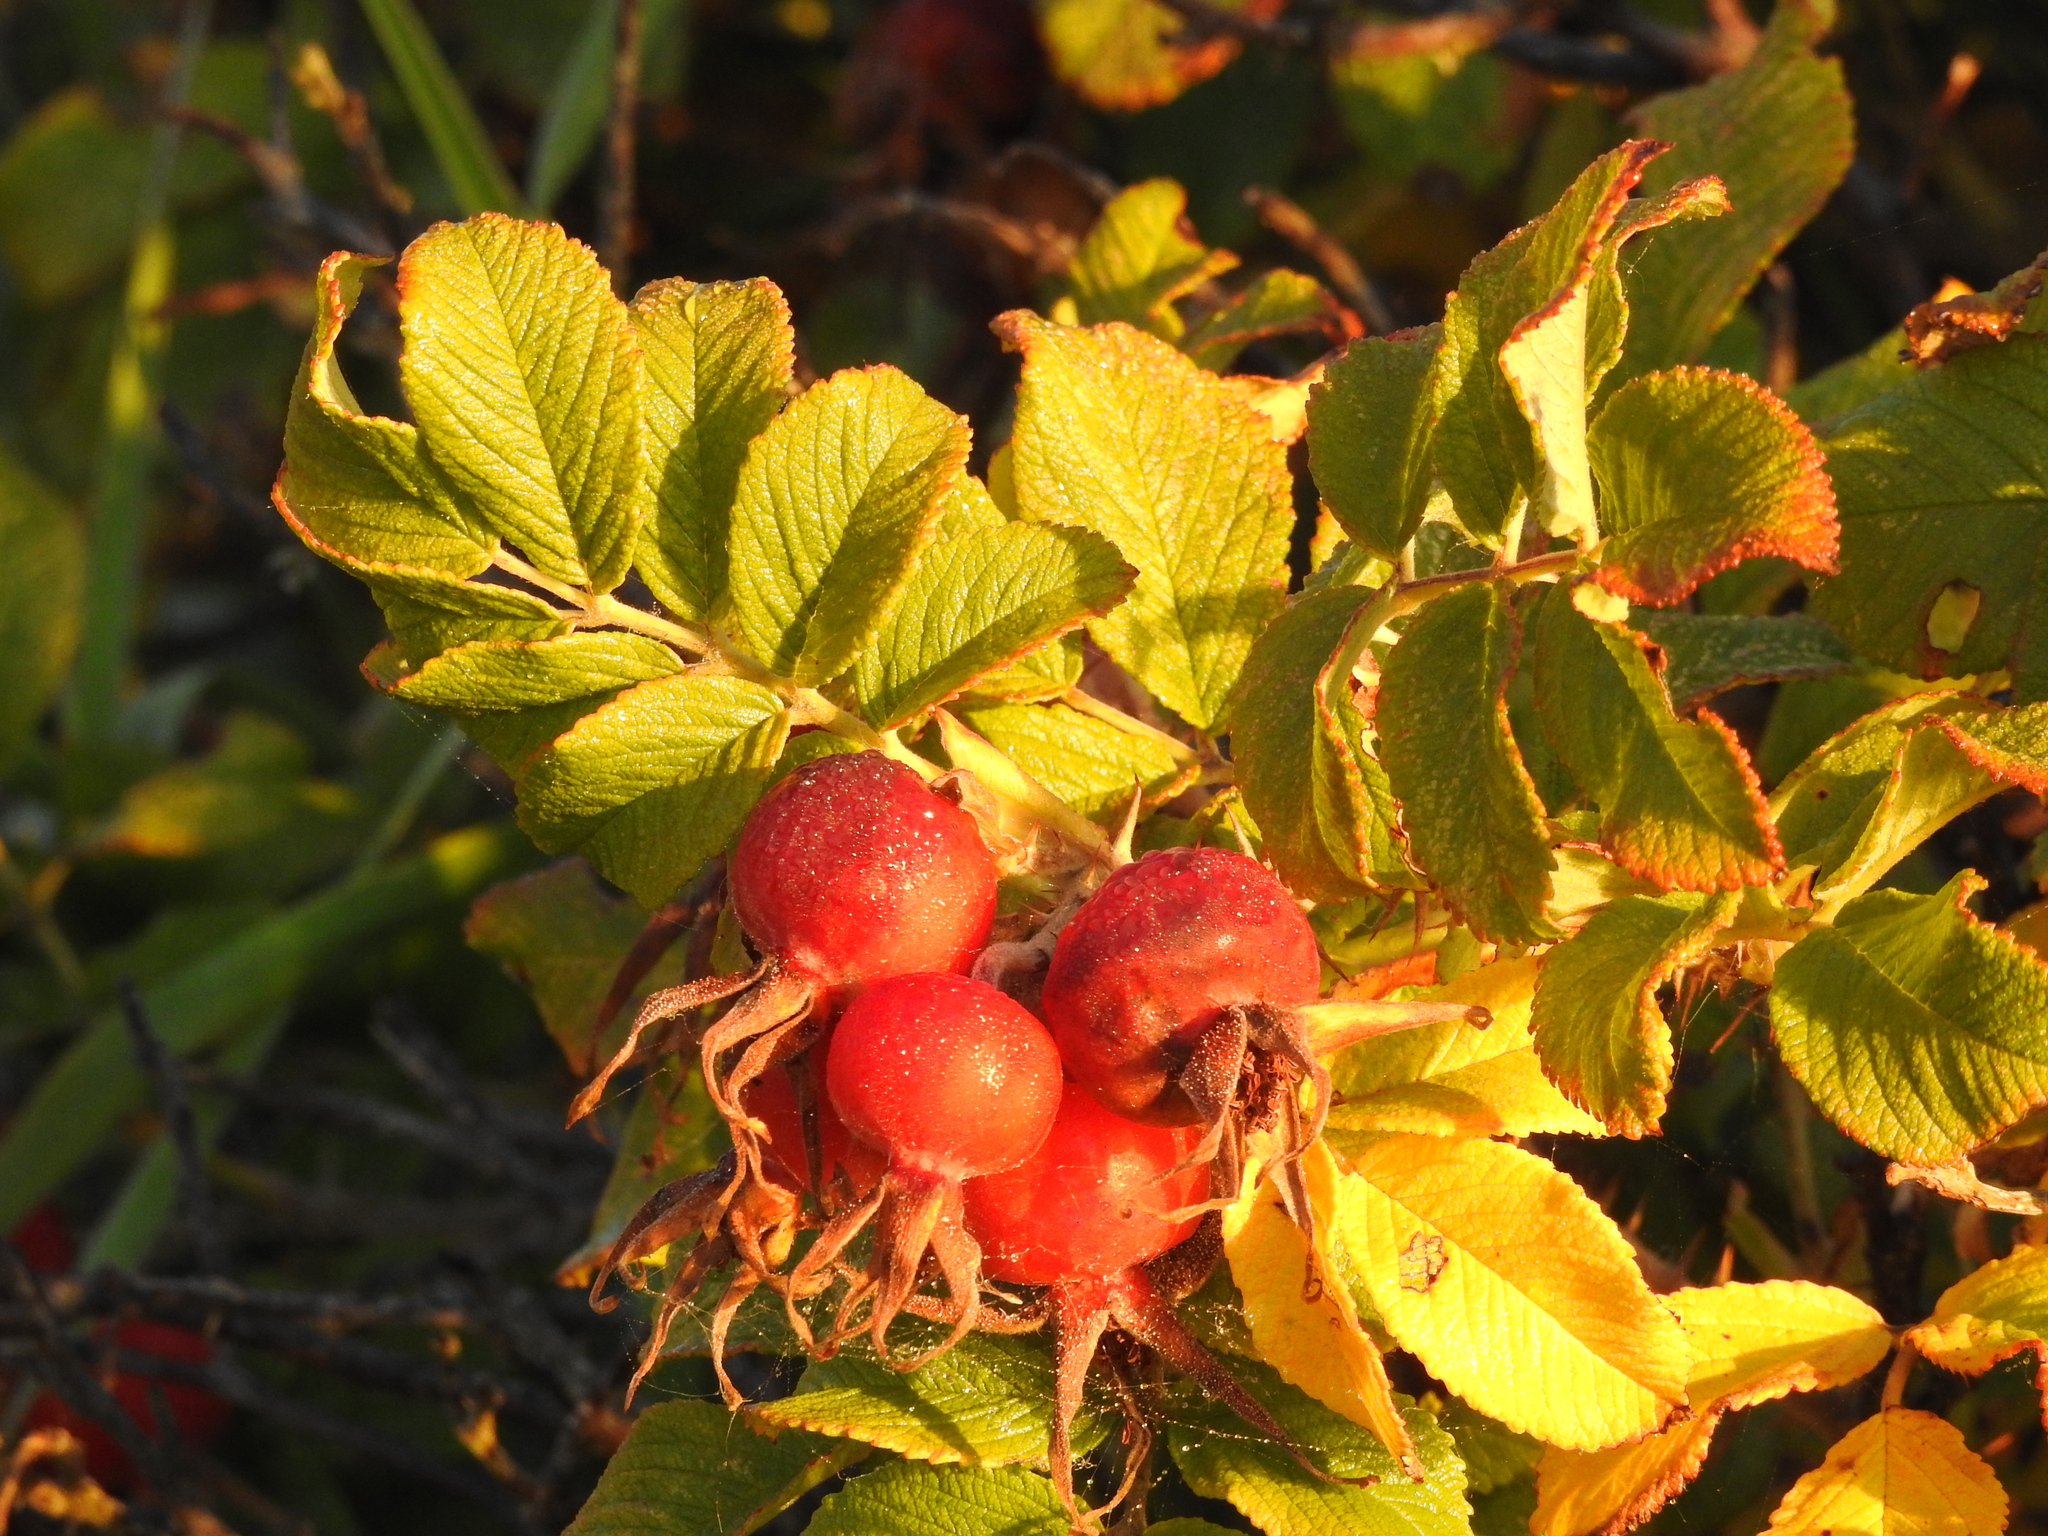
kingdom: Plantae
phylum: Tracheophyta
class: Magnoliopsida
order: Rosales
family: Rosaceae
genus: Rosa
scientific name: Rosa rugosa
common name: Japanese rose
